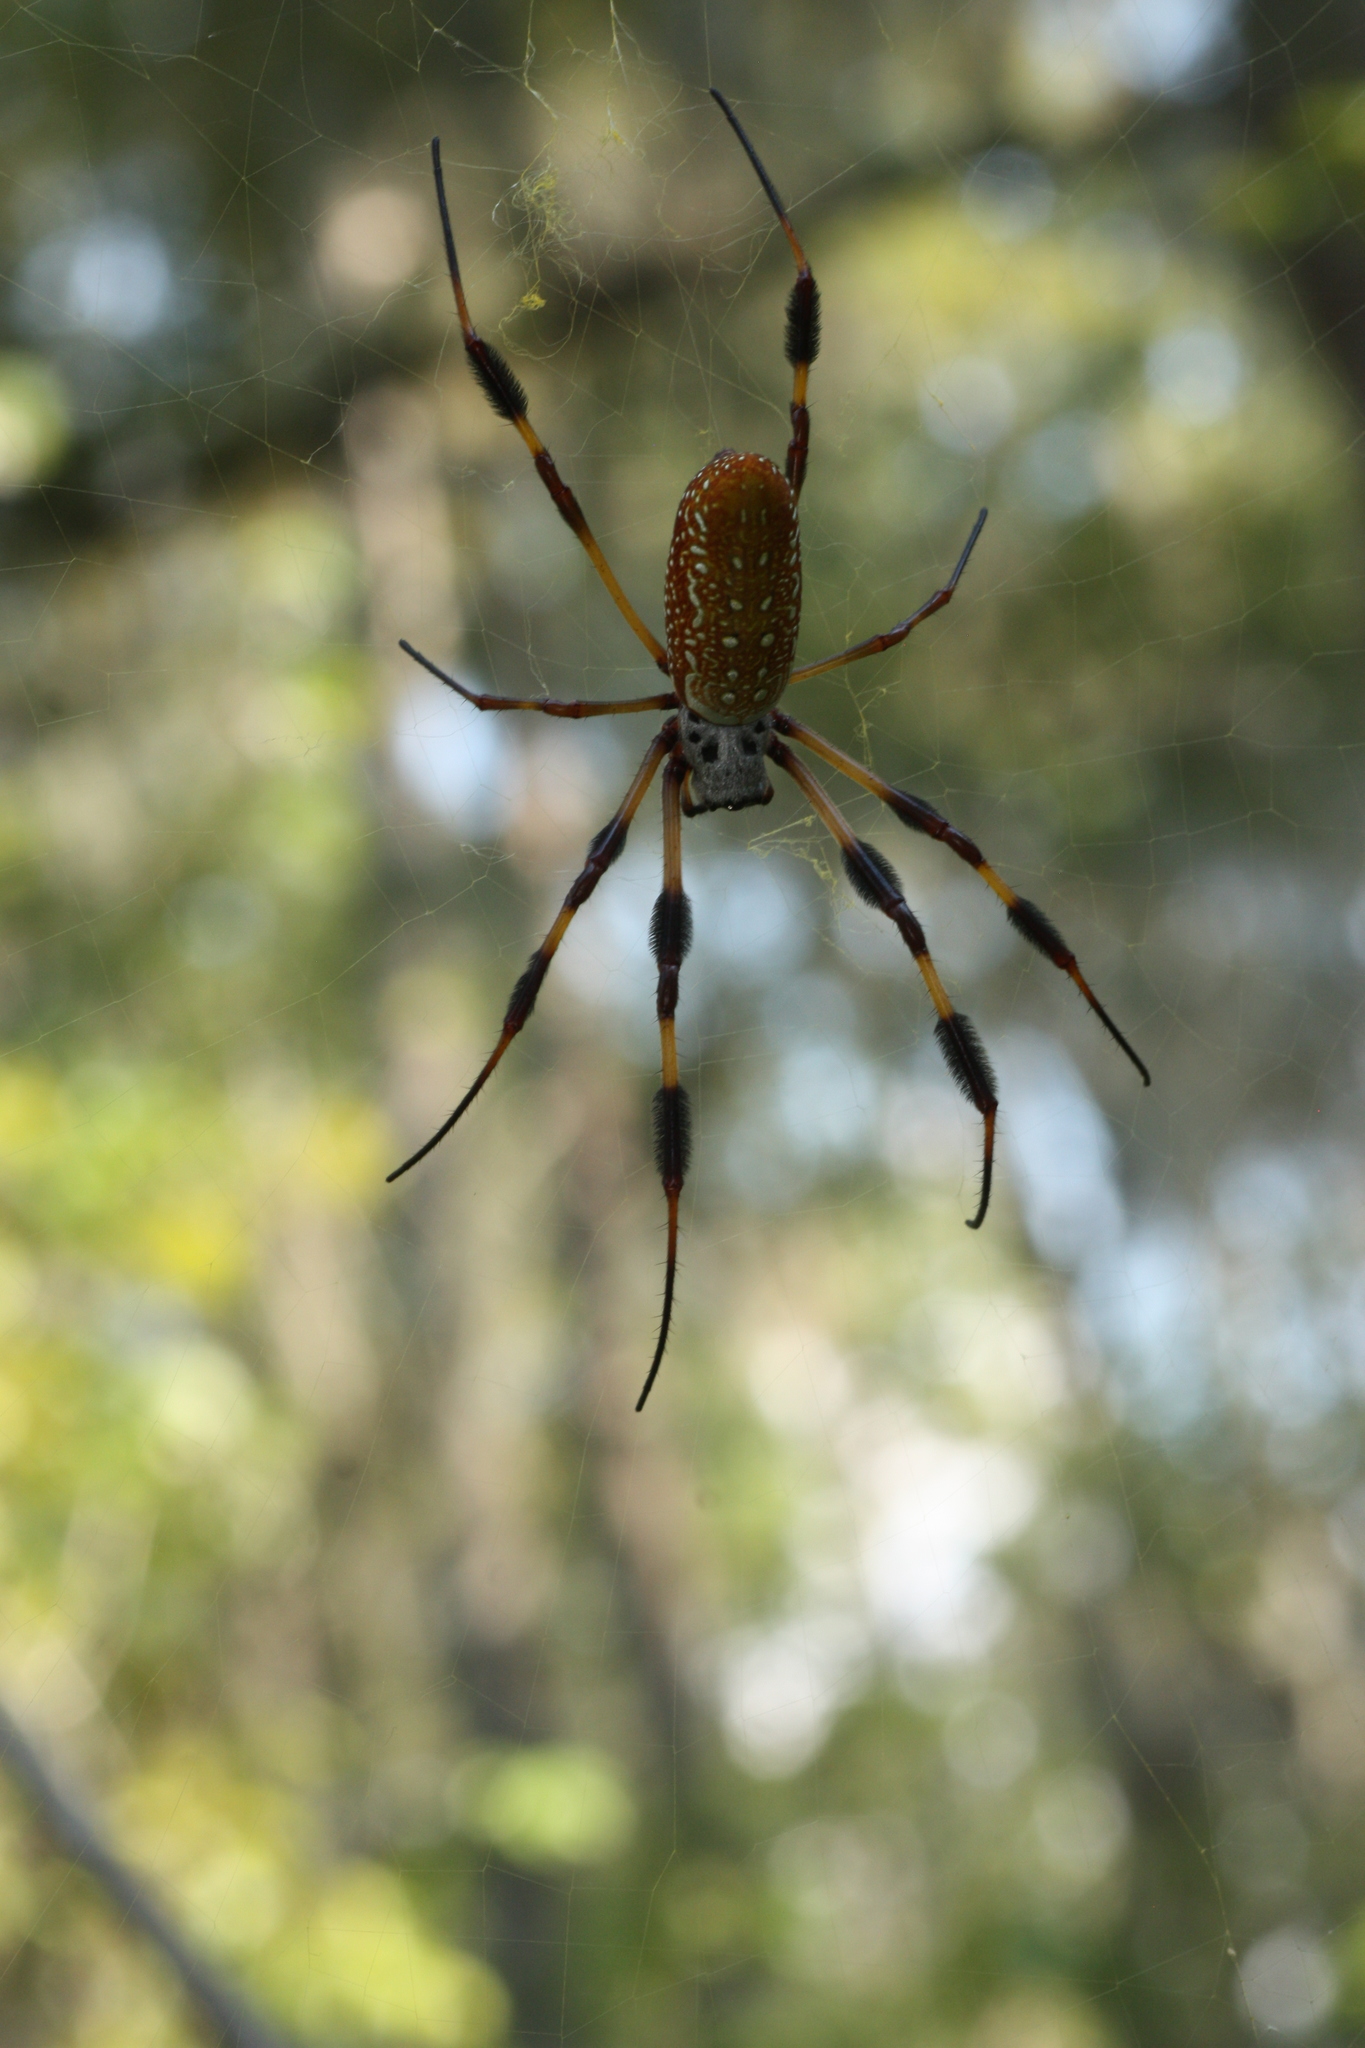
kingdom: Animalia
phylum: Arthropoda
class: Arachnida
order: Araneae
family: Araneidae
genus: Trichonephila
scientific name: Trichonephila clavipes
